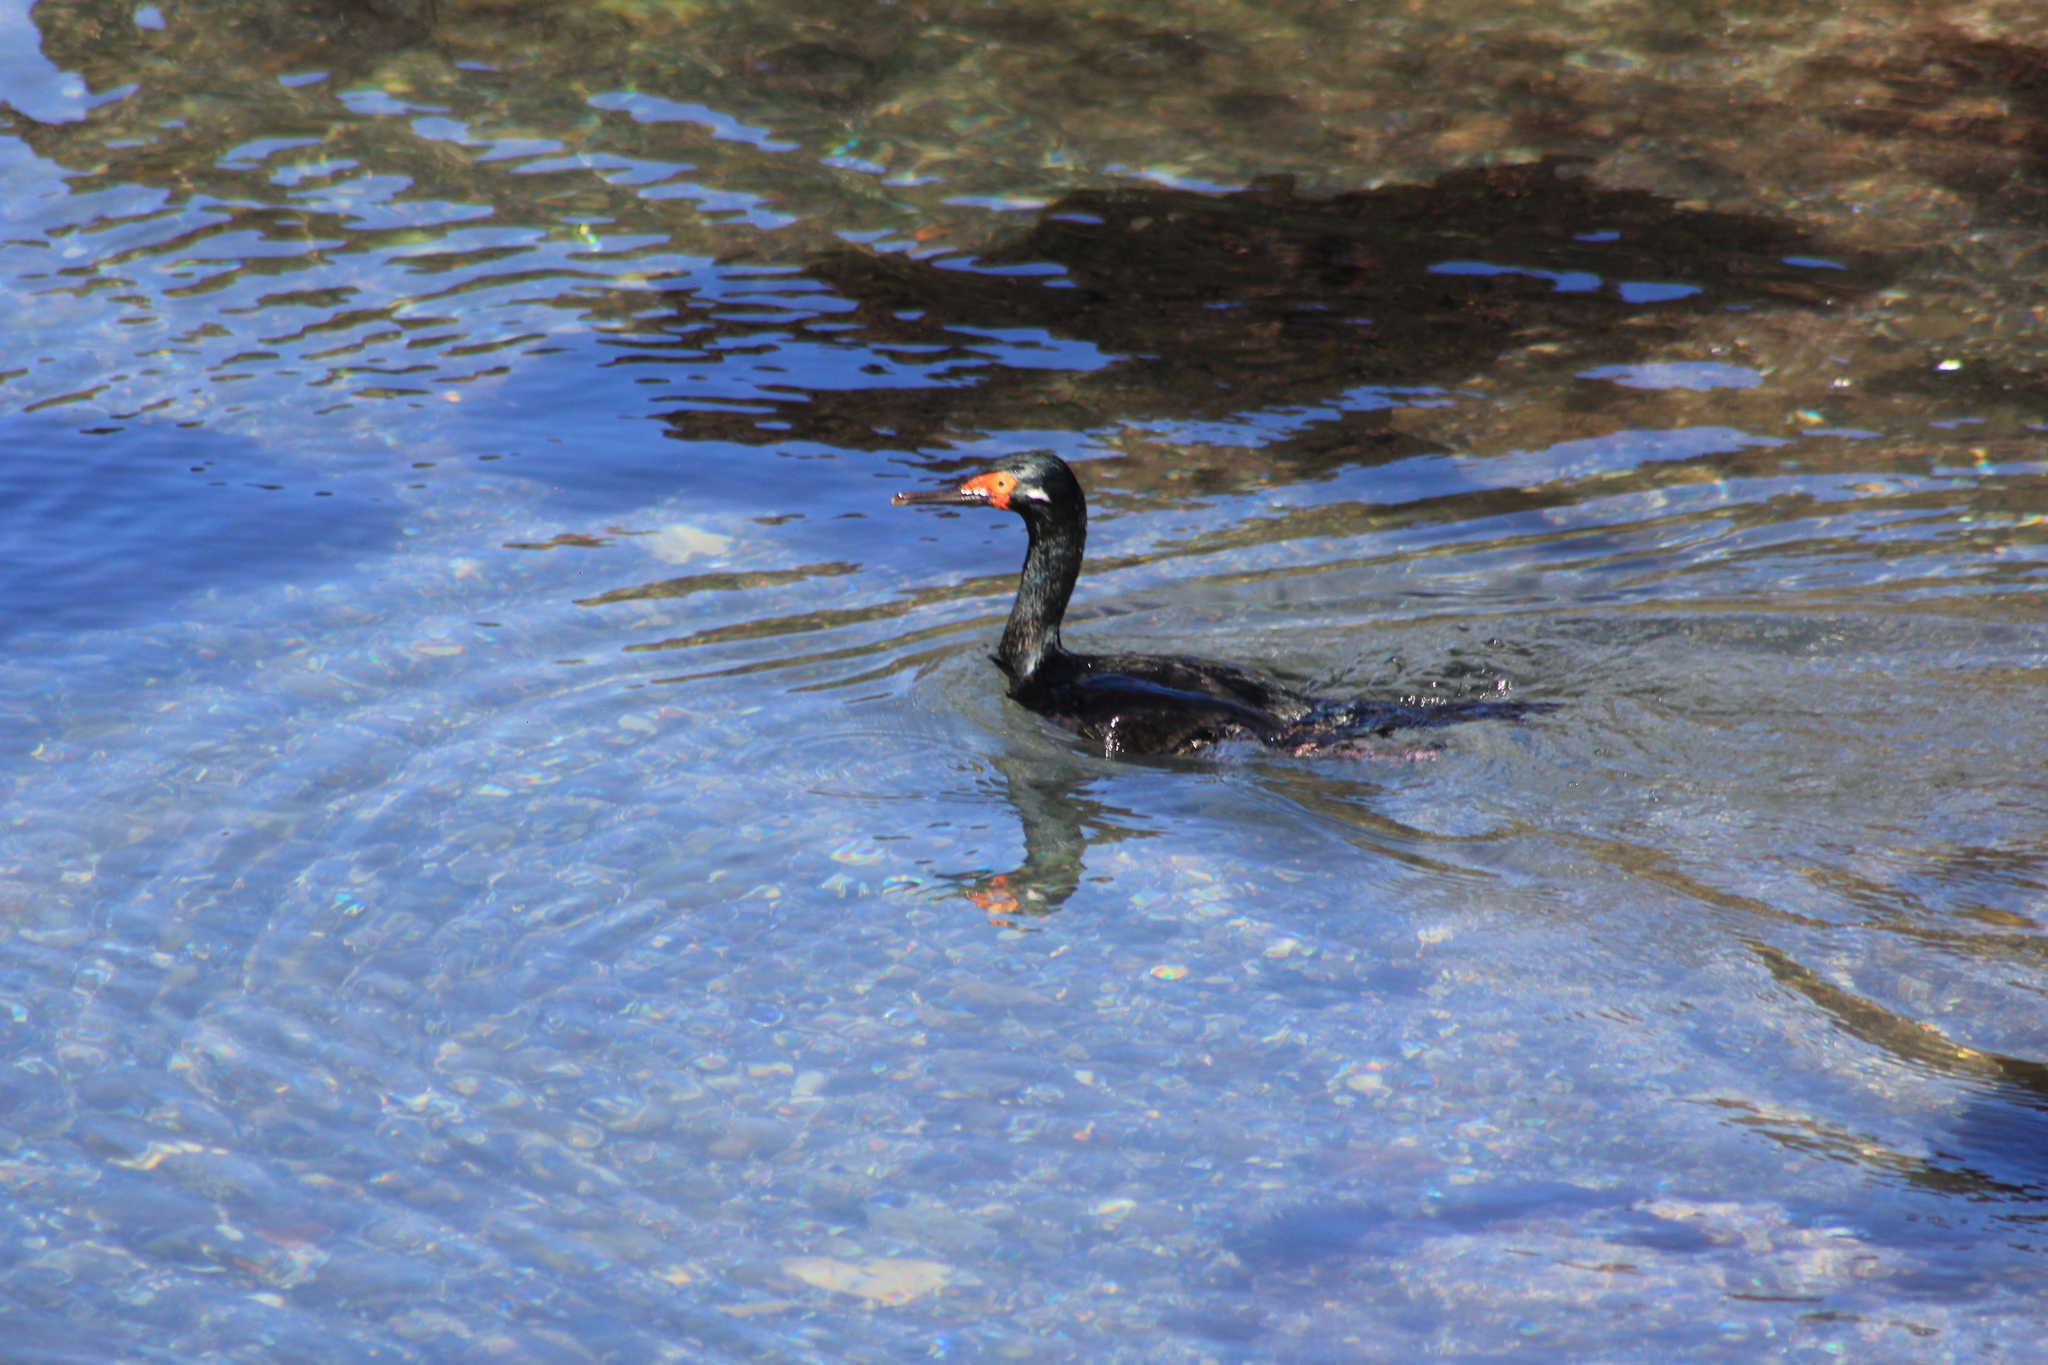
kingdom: Animalia
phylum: Chordata
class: Aves
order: Suliformes
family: Phalacrocoracidae
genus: Phalacrocorax
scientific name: Phalacrocorax magellanicus
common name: Rock shag
